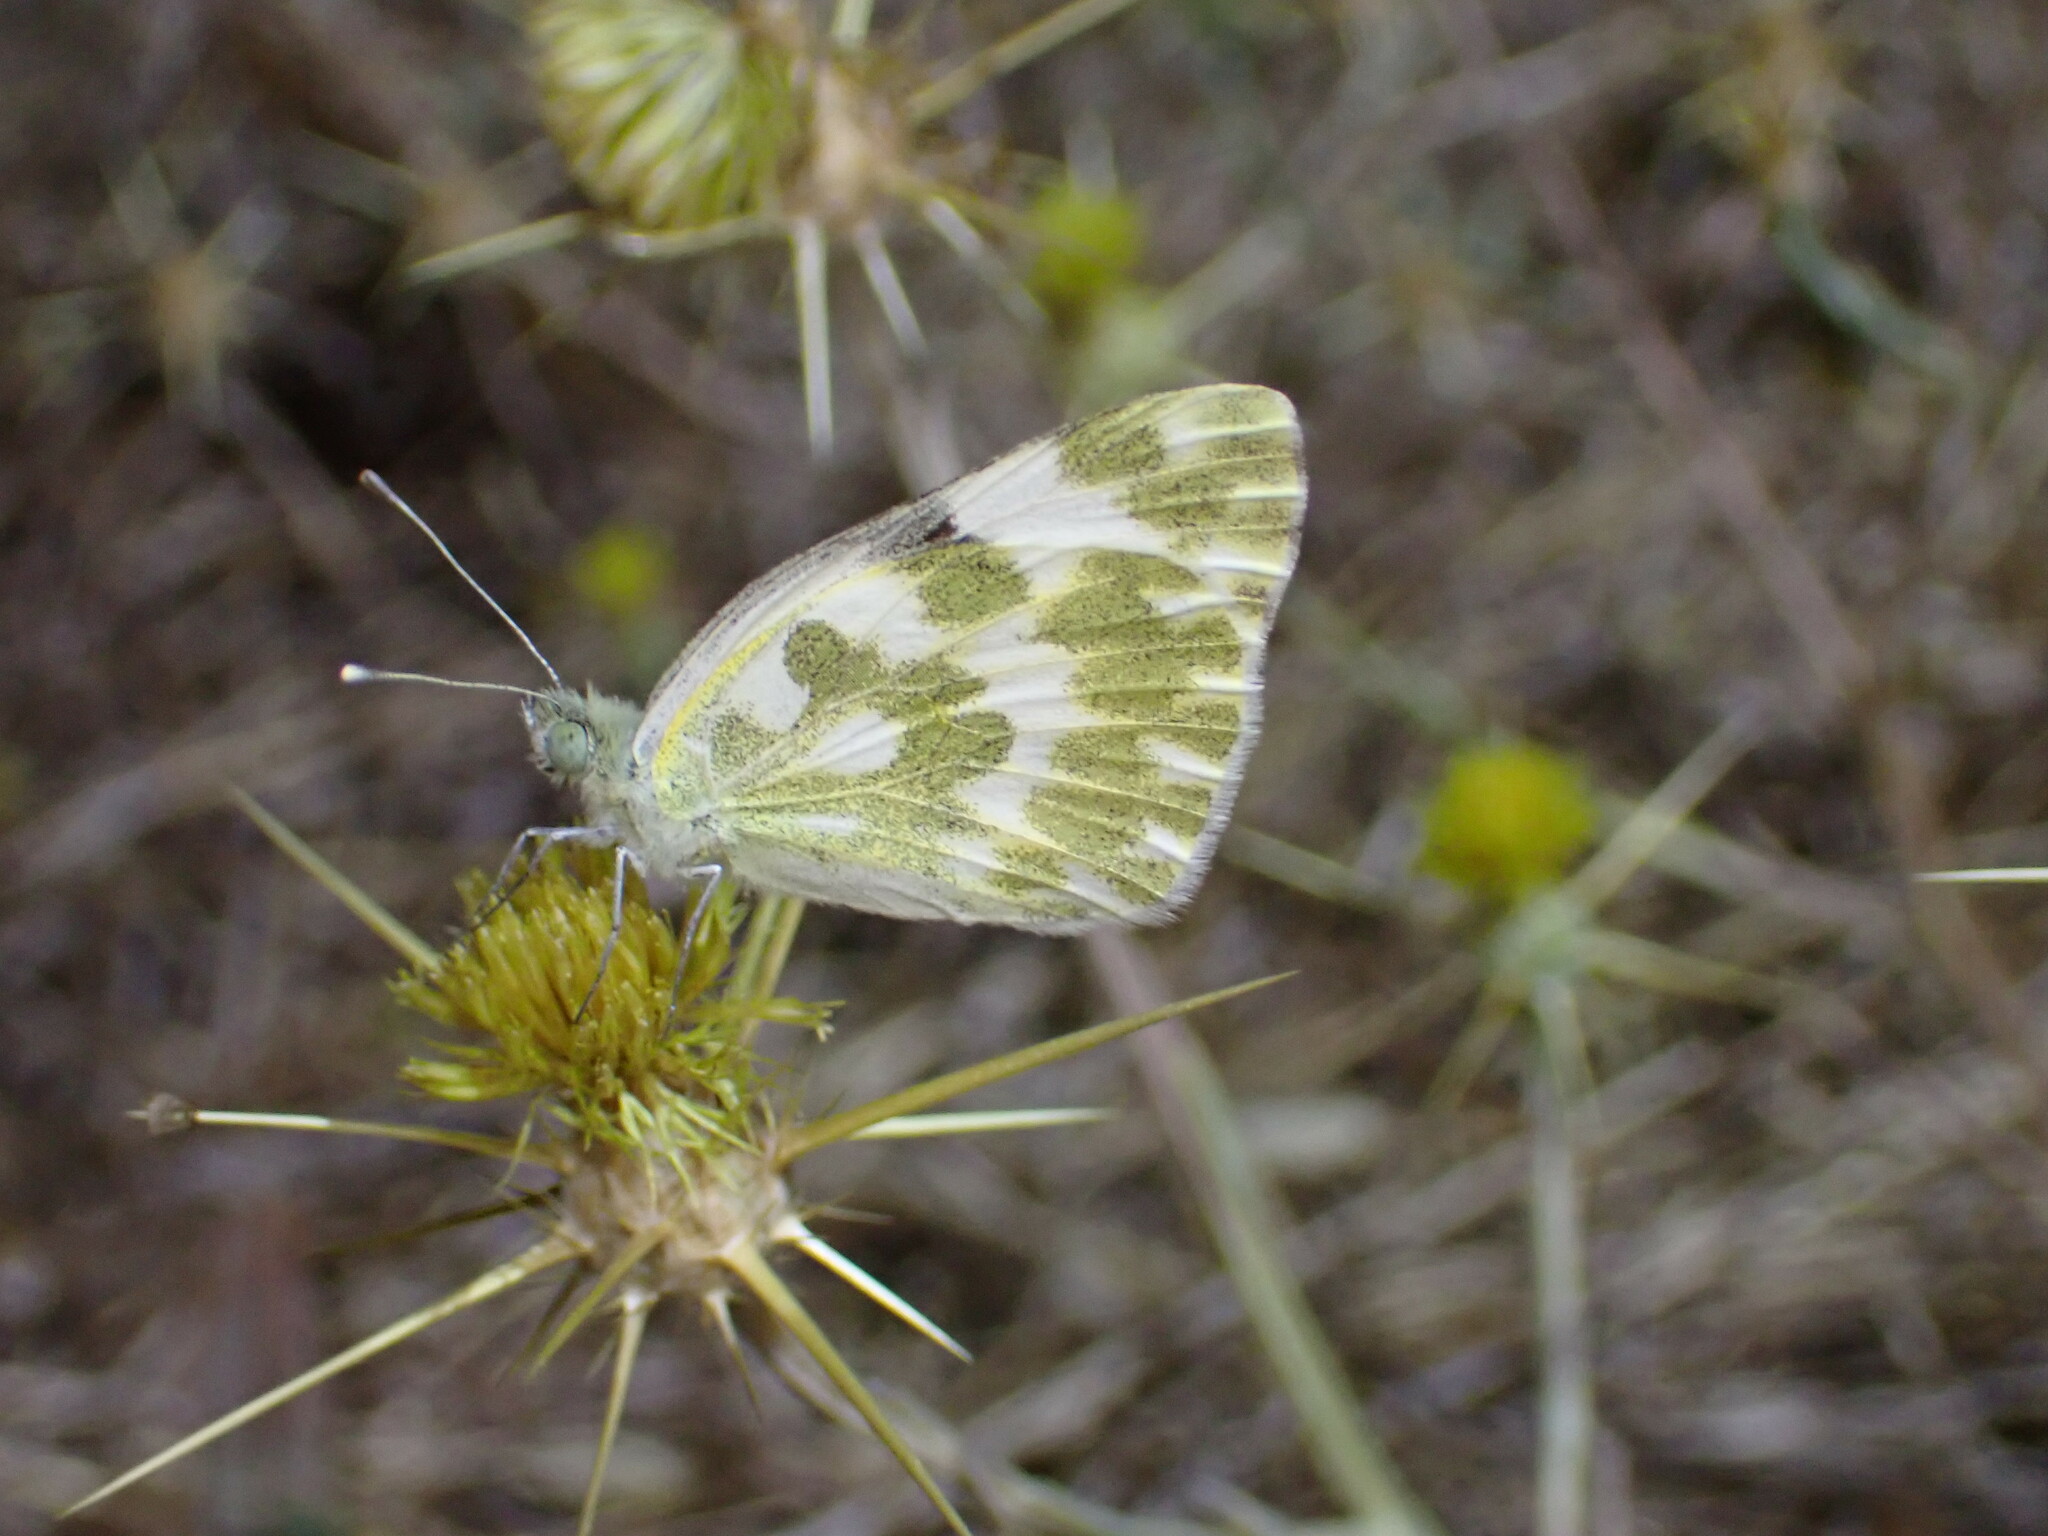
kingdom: Animalia
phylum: Arthropoda
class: Insecta
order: Lepidoptera
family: Pieridae
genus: Pontia
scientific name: Pontia daplidice
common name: Bath white
